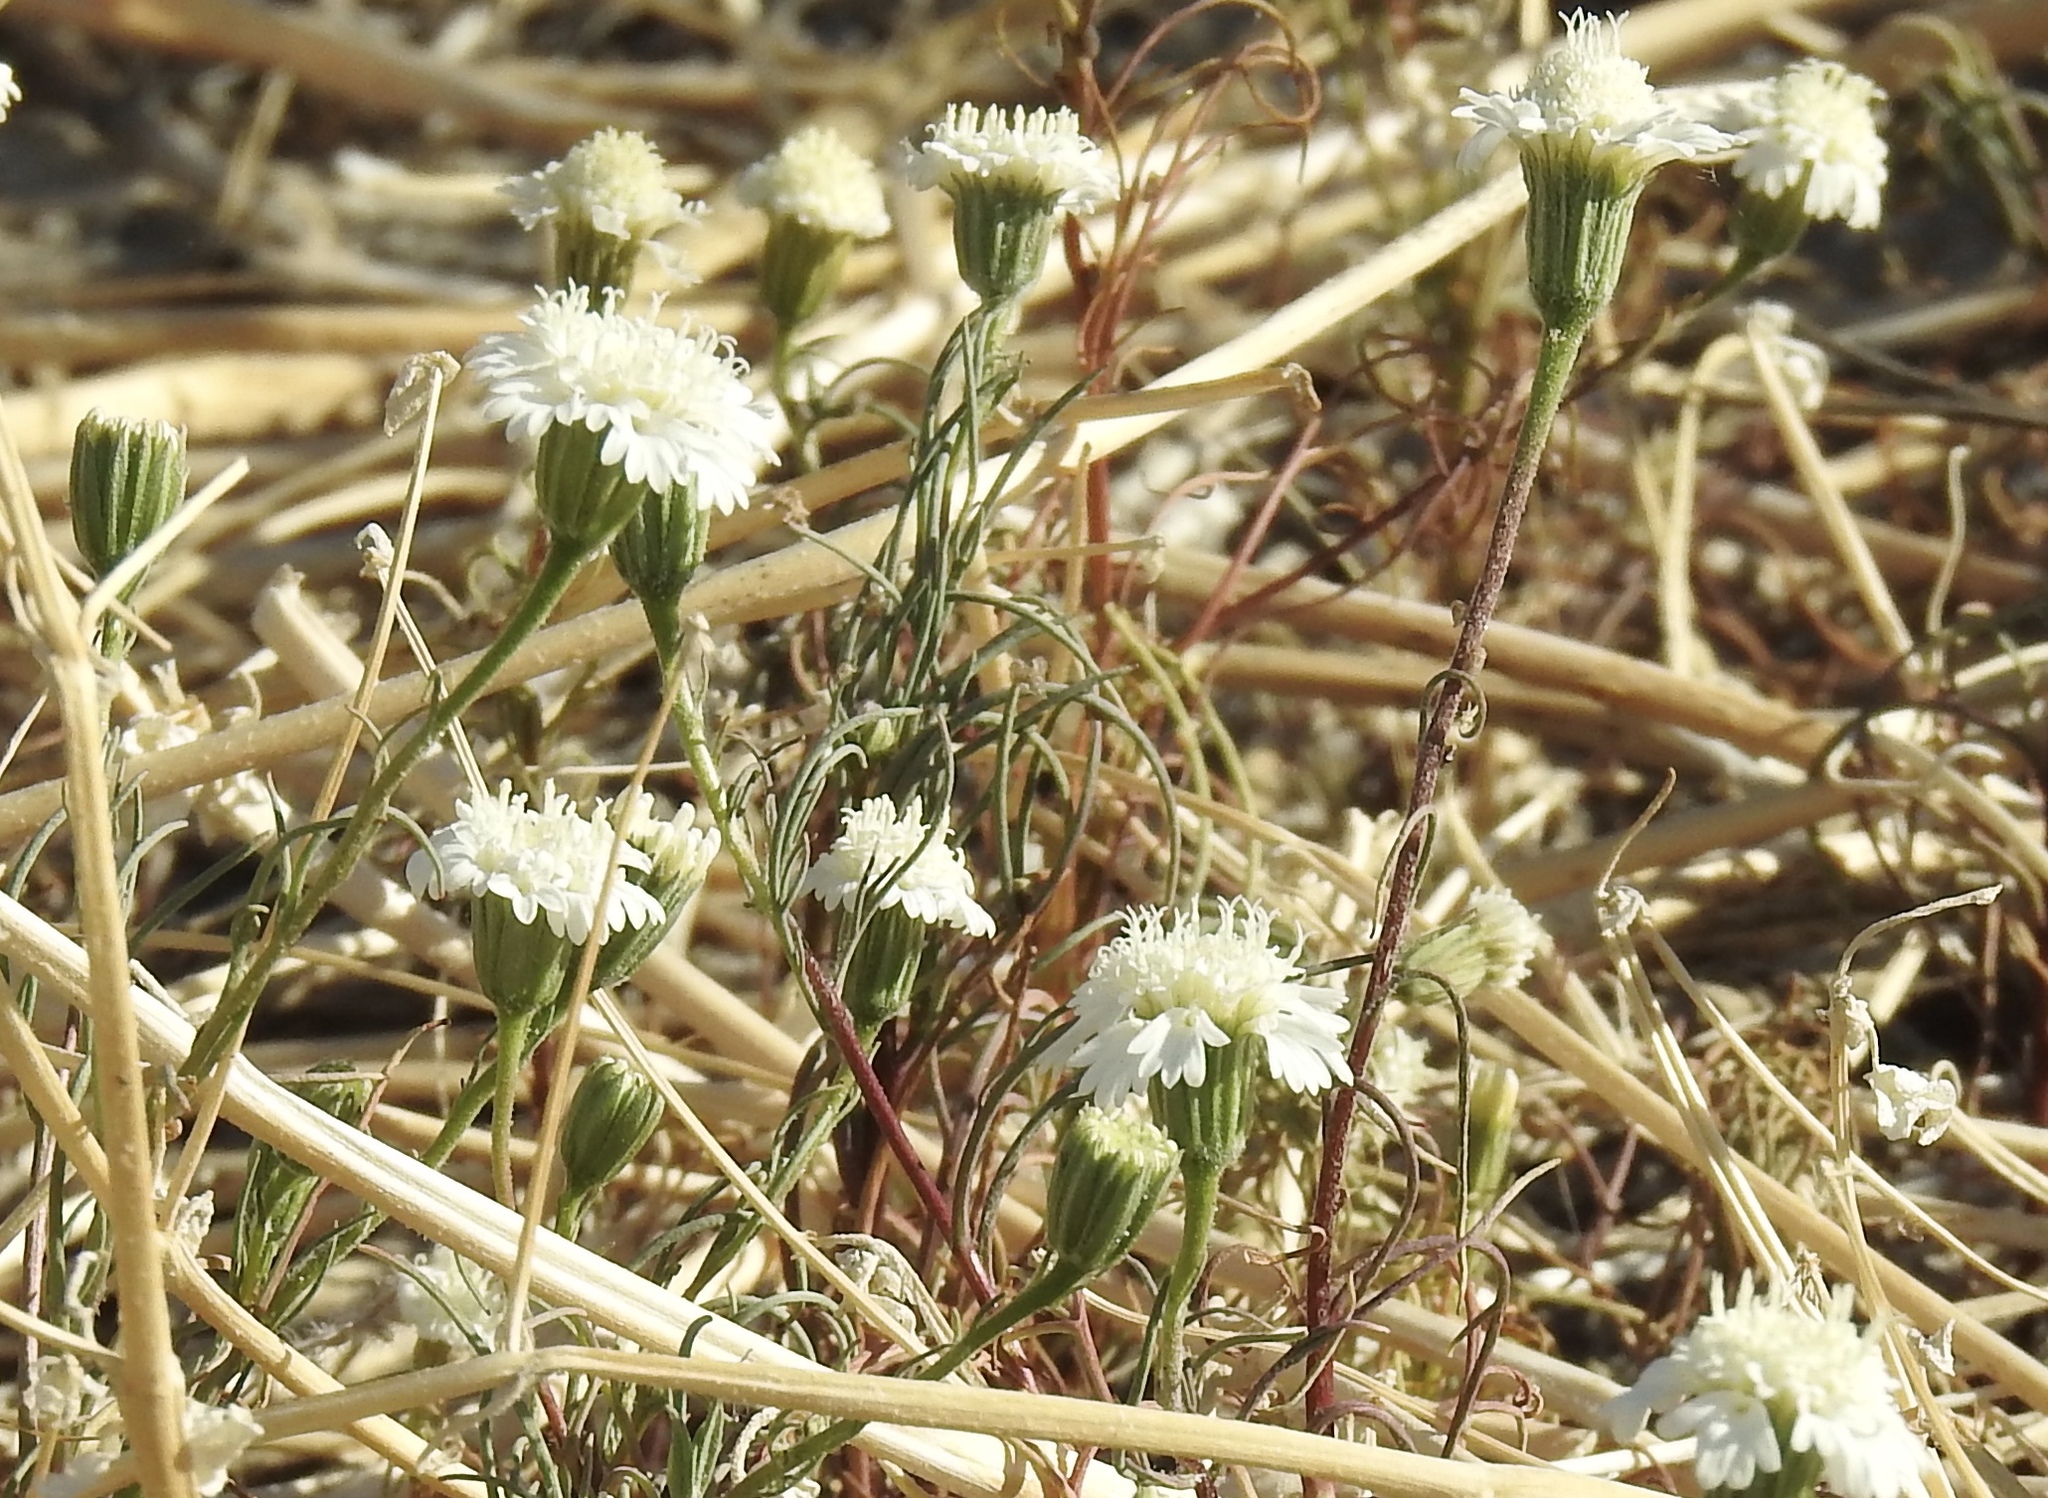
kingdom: Plantae
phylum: Tracheophyta
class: Magnoliopsida
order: Asterales
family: Asteraceae
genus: Chaenactis
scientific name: Chaenactis fremontii
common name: Fremont pincushion
